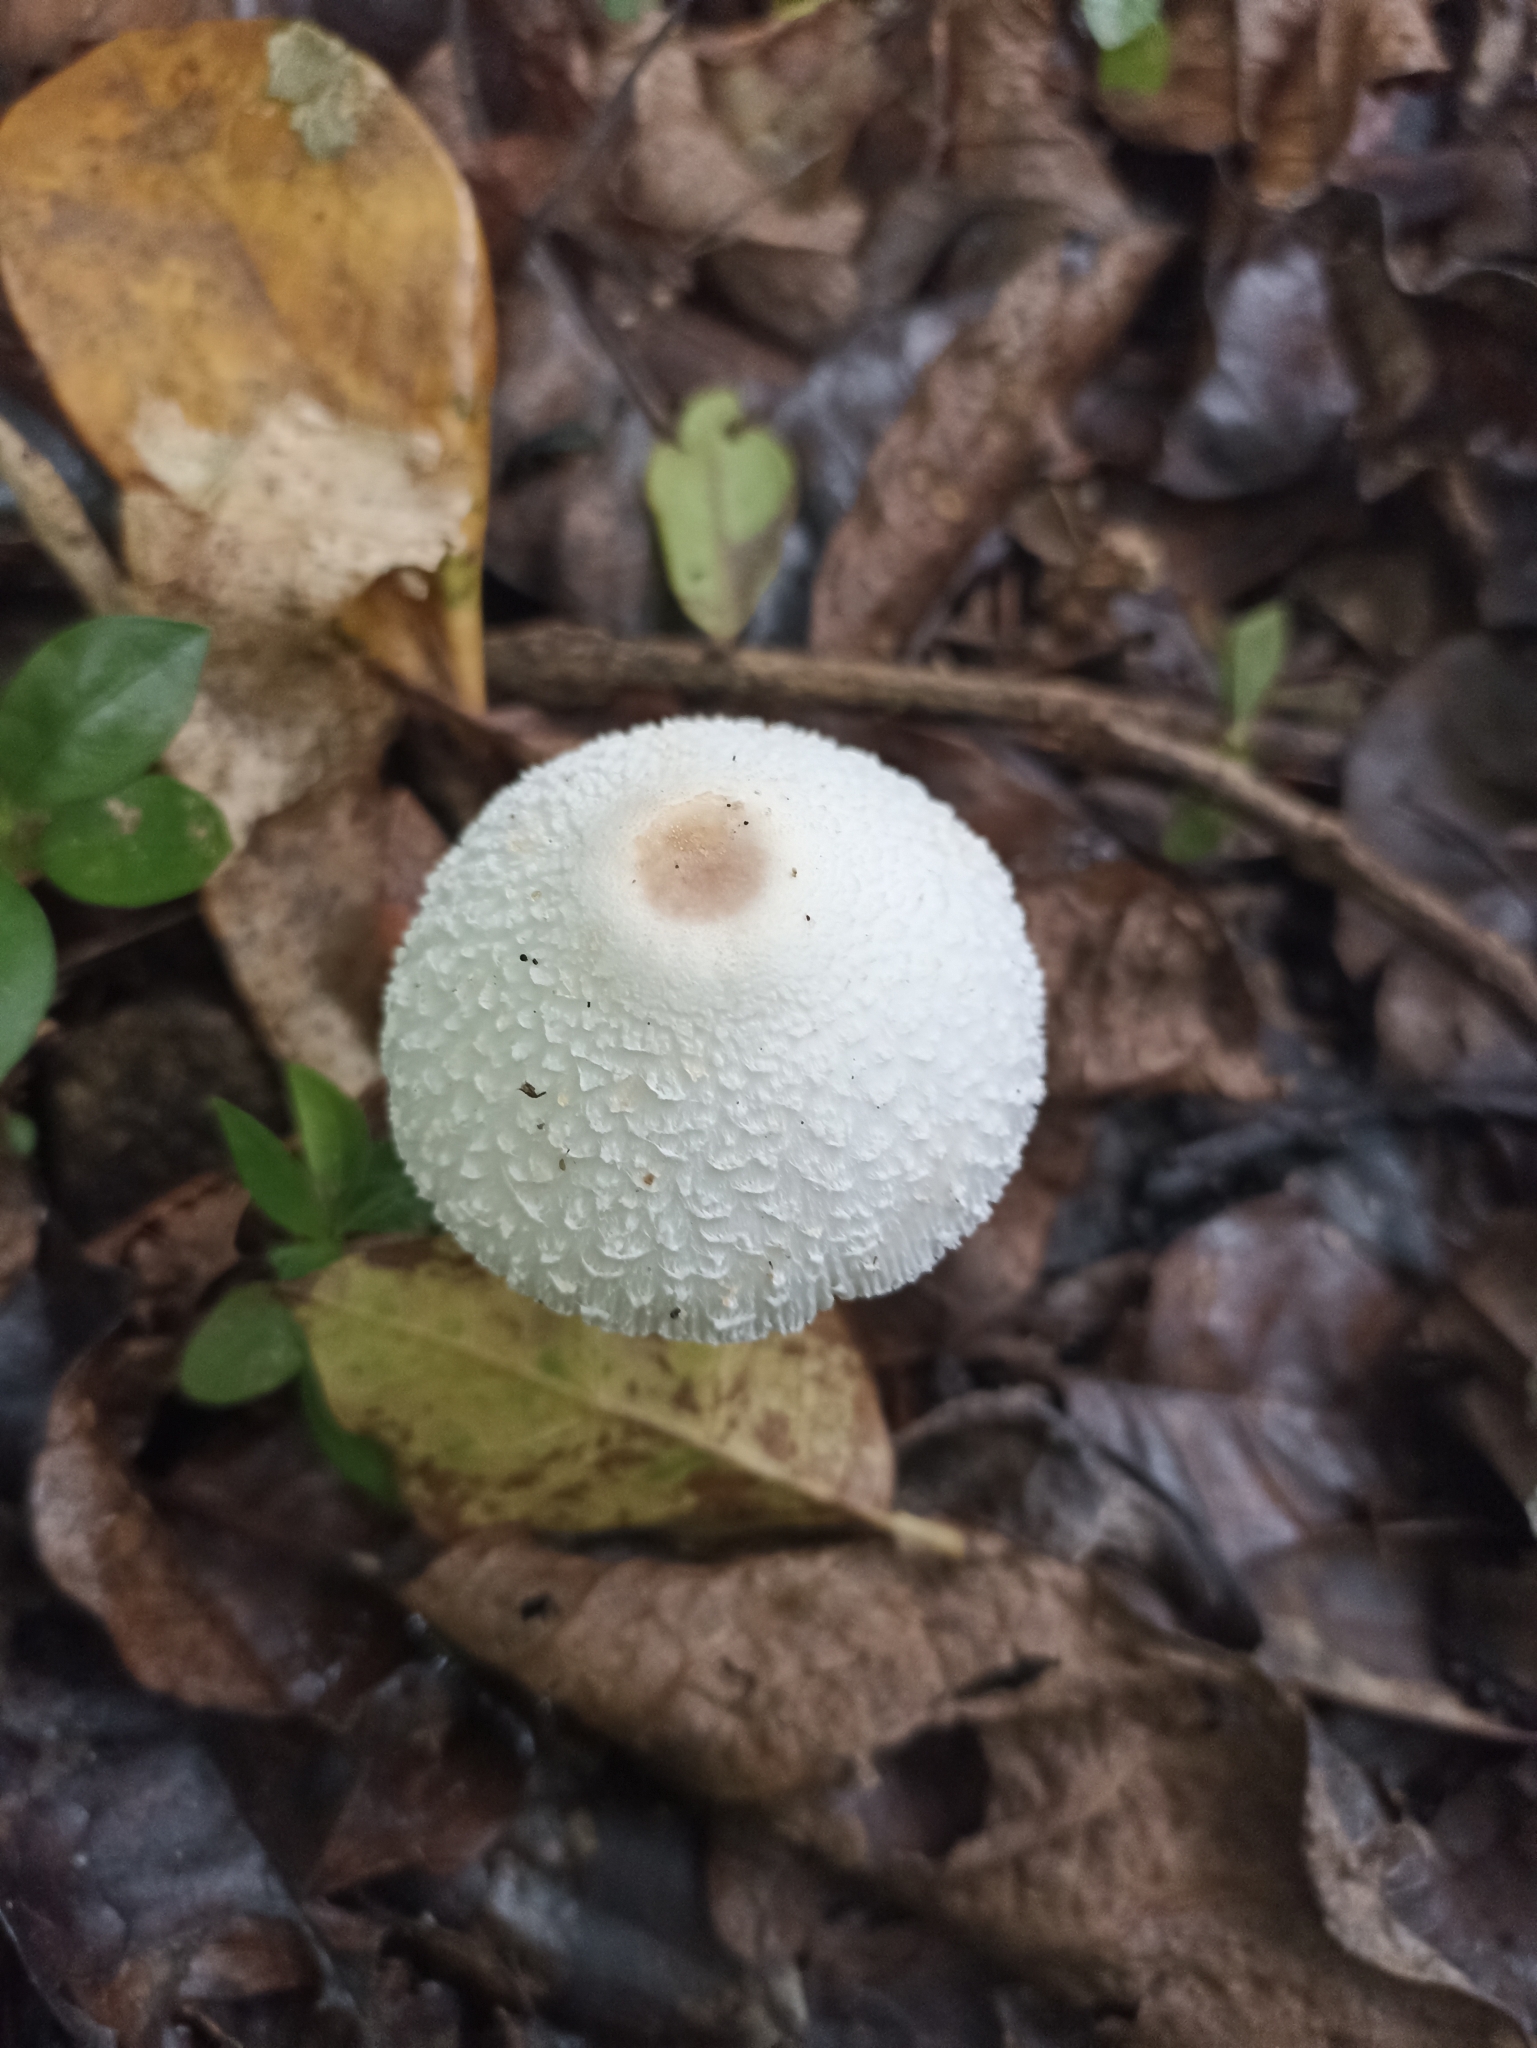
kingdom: Fungi
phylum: Basidiomycota
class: Agaricomycetes
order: Agaricales
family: Agaricaceae
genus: Leucocoprinus
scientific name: Leucocoprinus cepistipes
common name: Onion-stalk parasol
